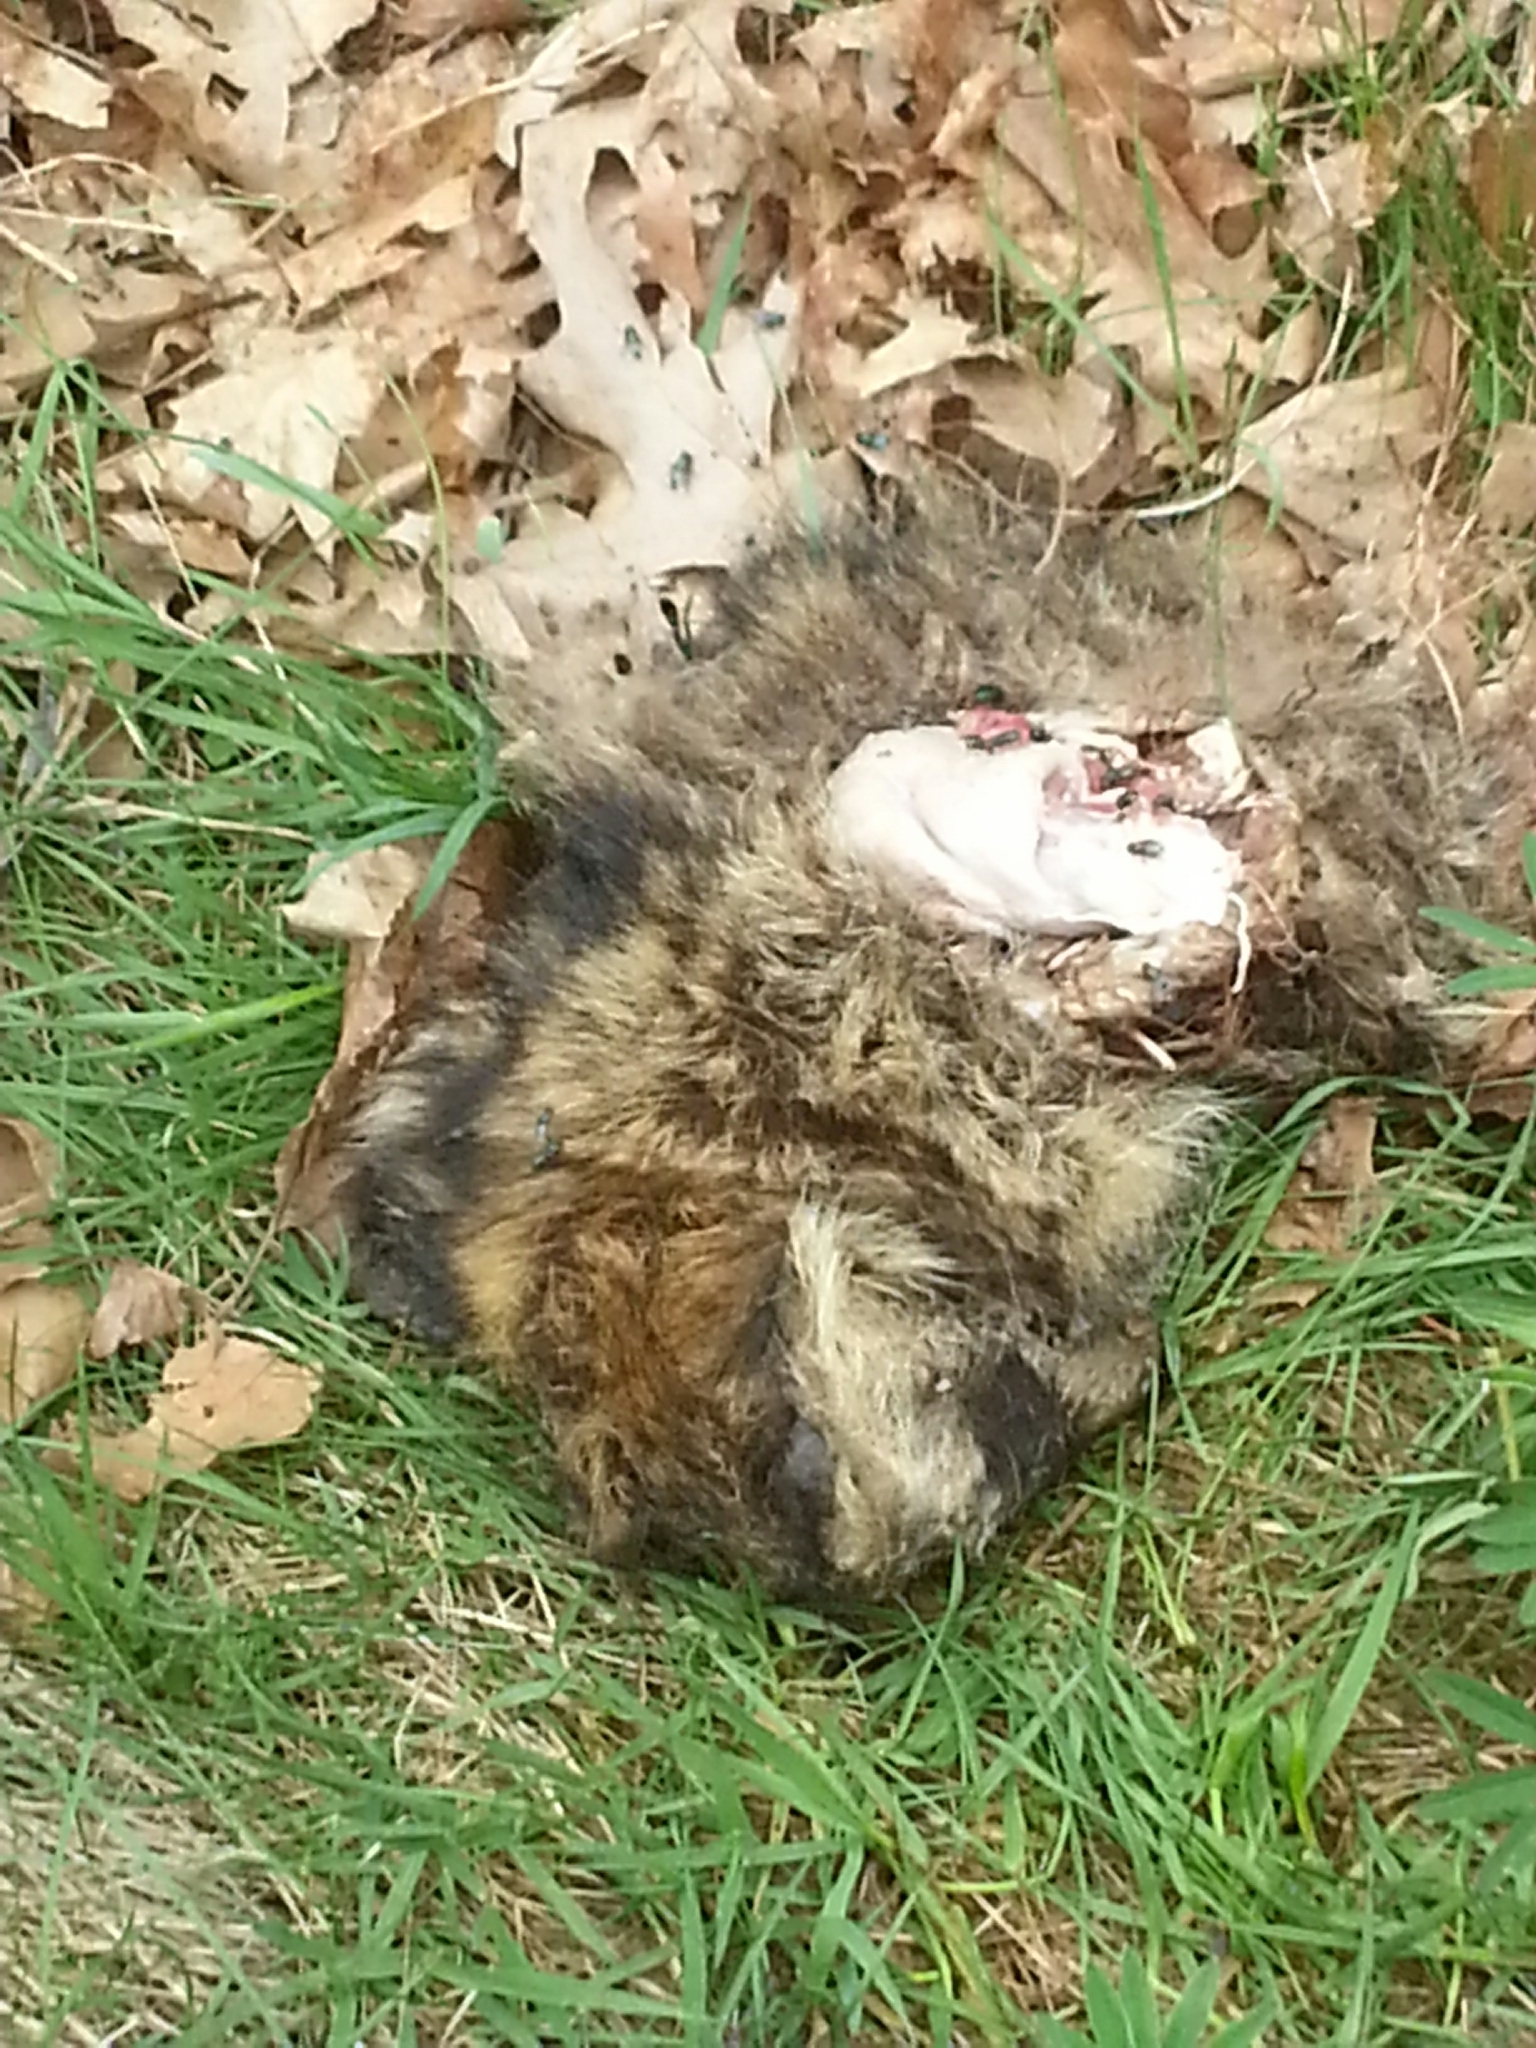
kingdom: Animalia
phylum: Chordata
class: Mammalia
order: Carnivora
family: Procyonidae
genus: Procyon
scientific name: Procyon lotor
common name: Raccoon
